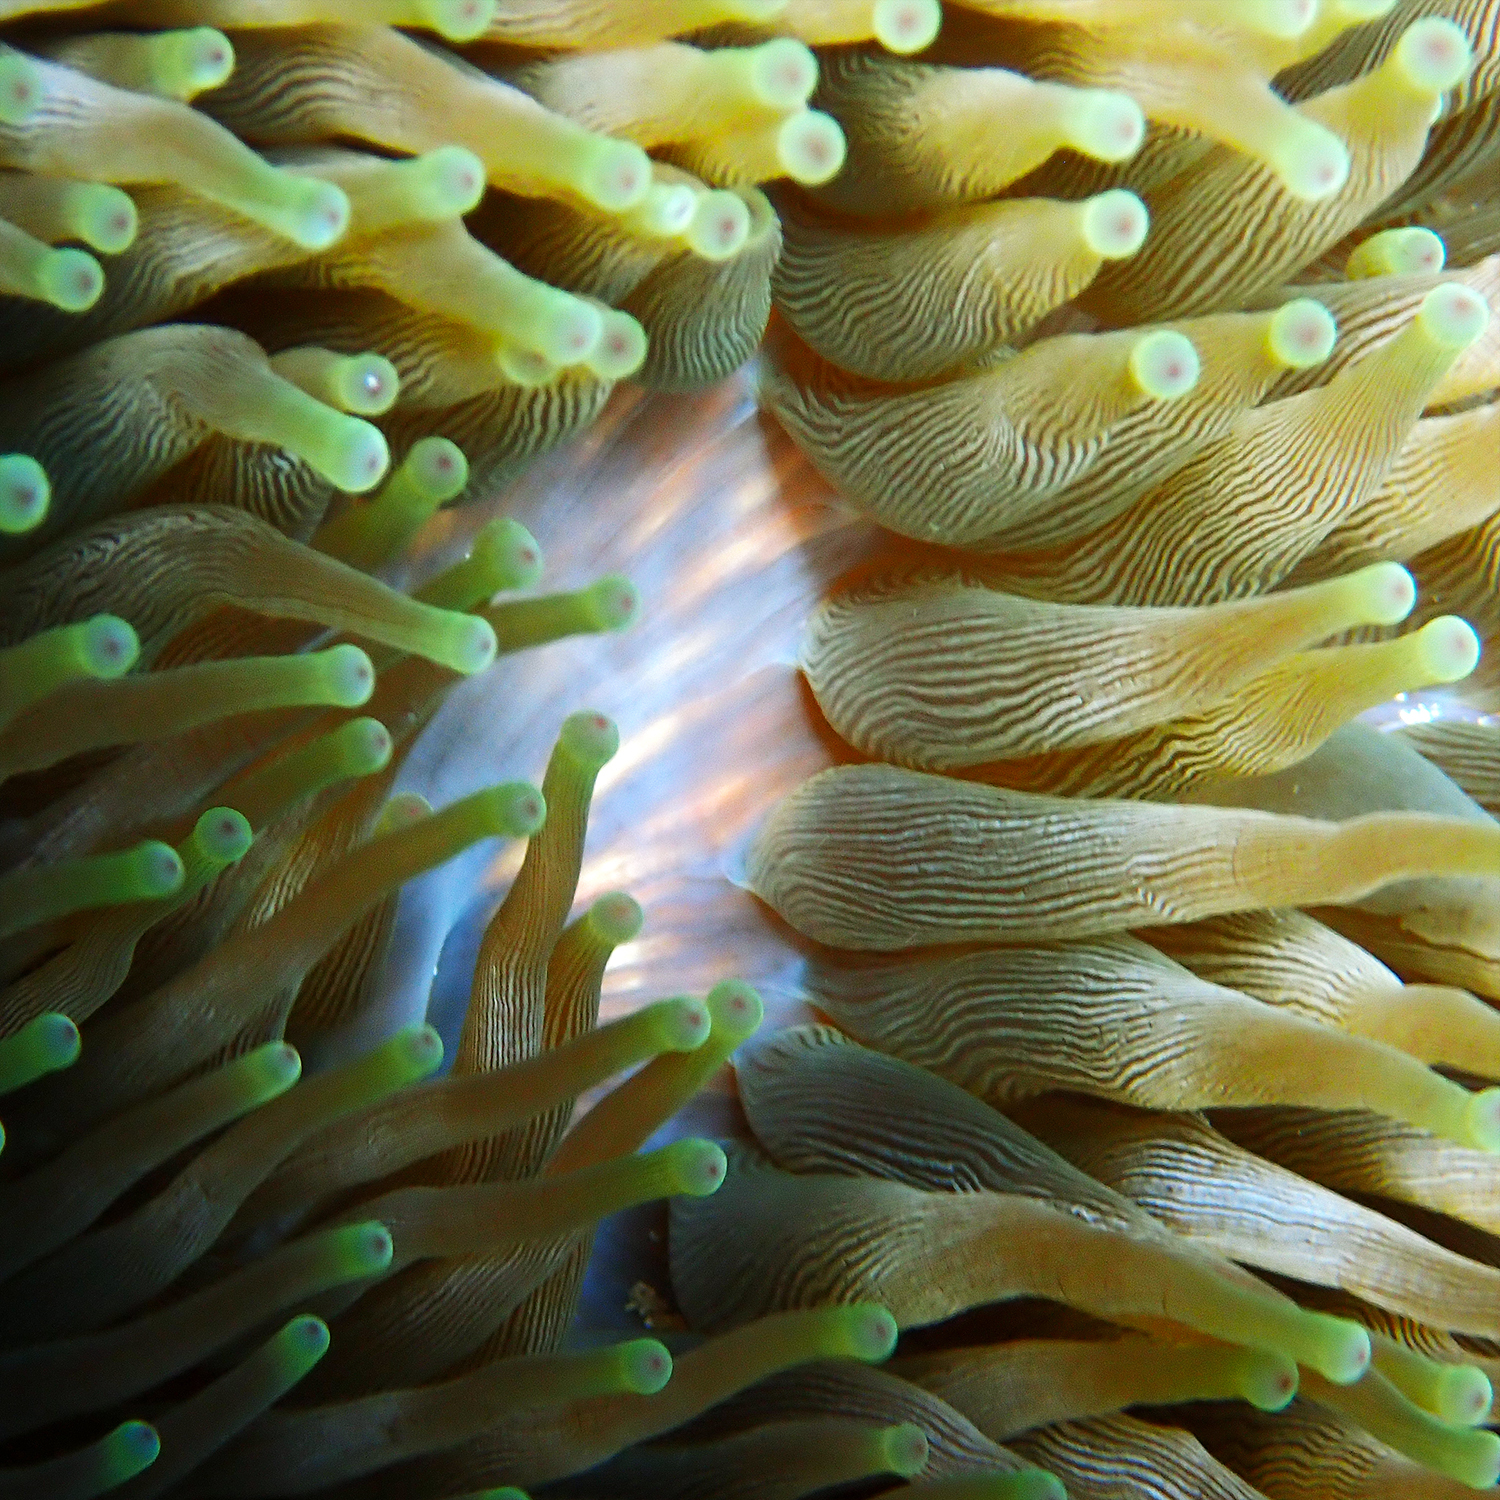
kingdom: Animalia
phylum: Cnidaria
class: Anthozoa
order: Actiniaria
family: Actiniidae
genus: Entacmaea
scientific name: Entacmaea quadricolor
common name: Bulb tentacle sea anemone
